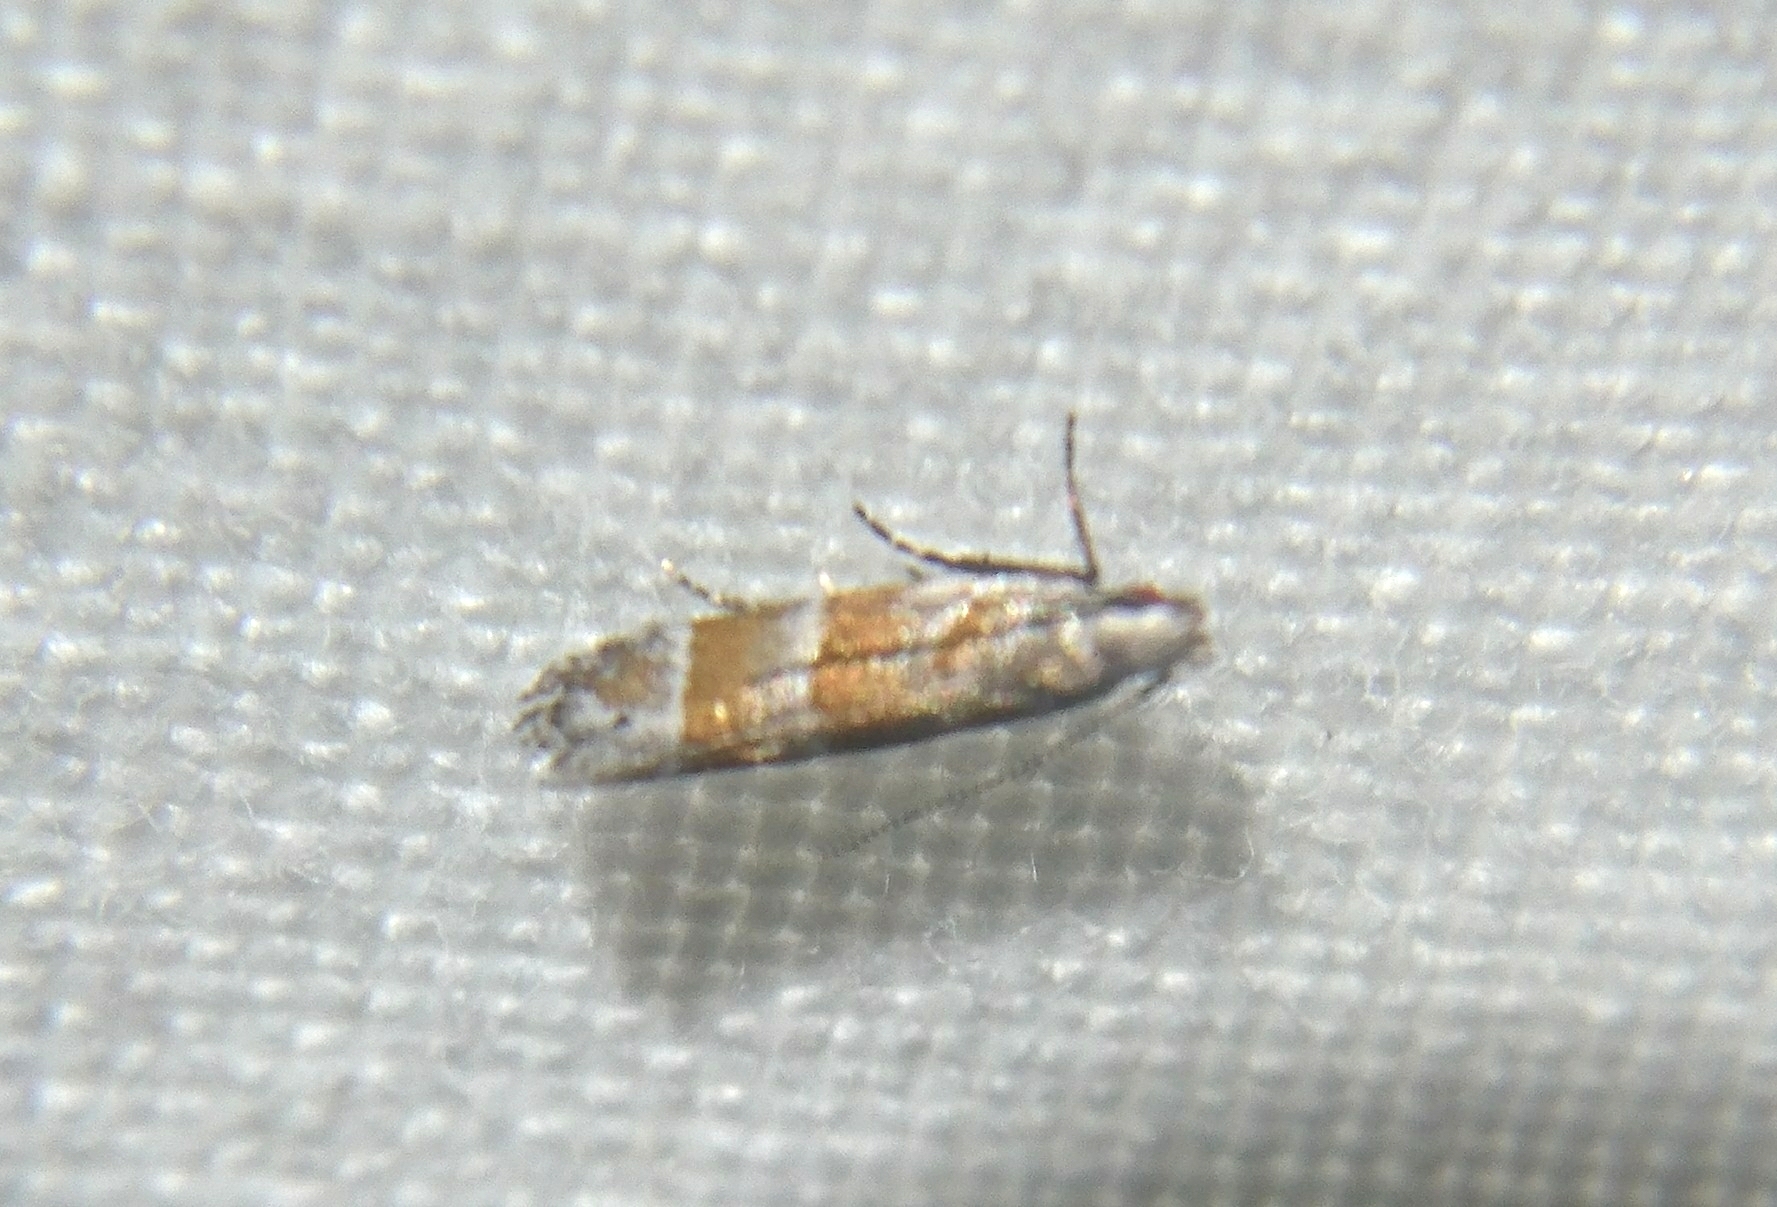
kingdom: Animalia
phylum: Arthropoda
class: Insecta
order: Lepidoptera
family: Gelechiidae
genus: Battaristis
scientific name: Battaristis vittella
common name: Orange stripe-backed moth
